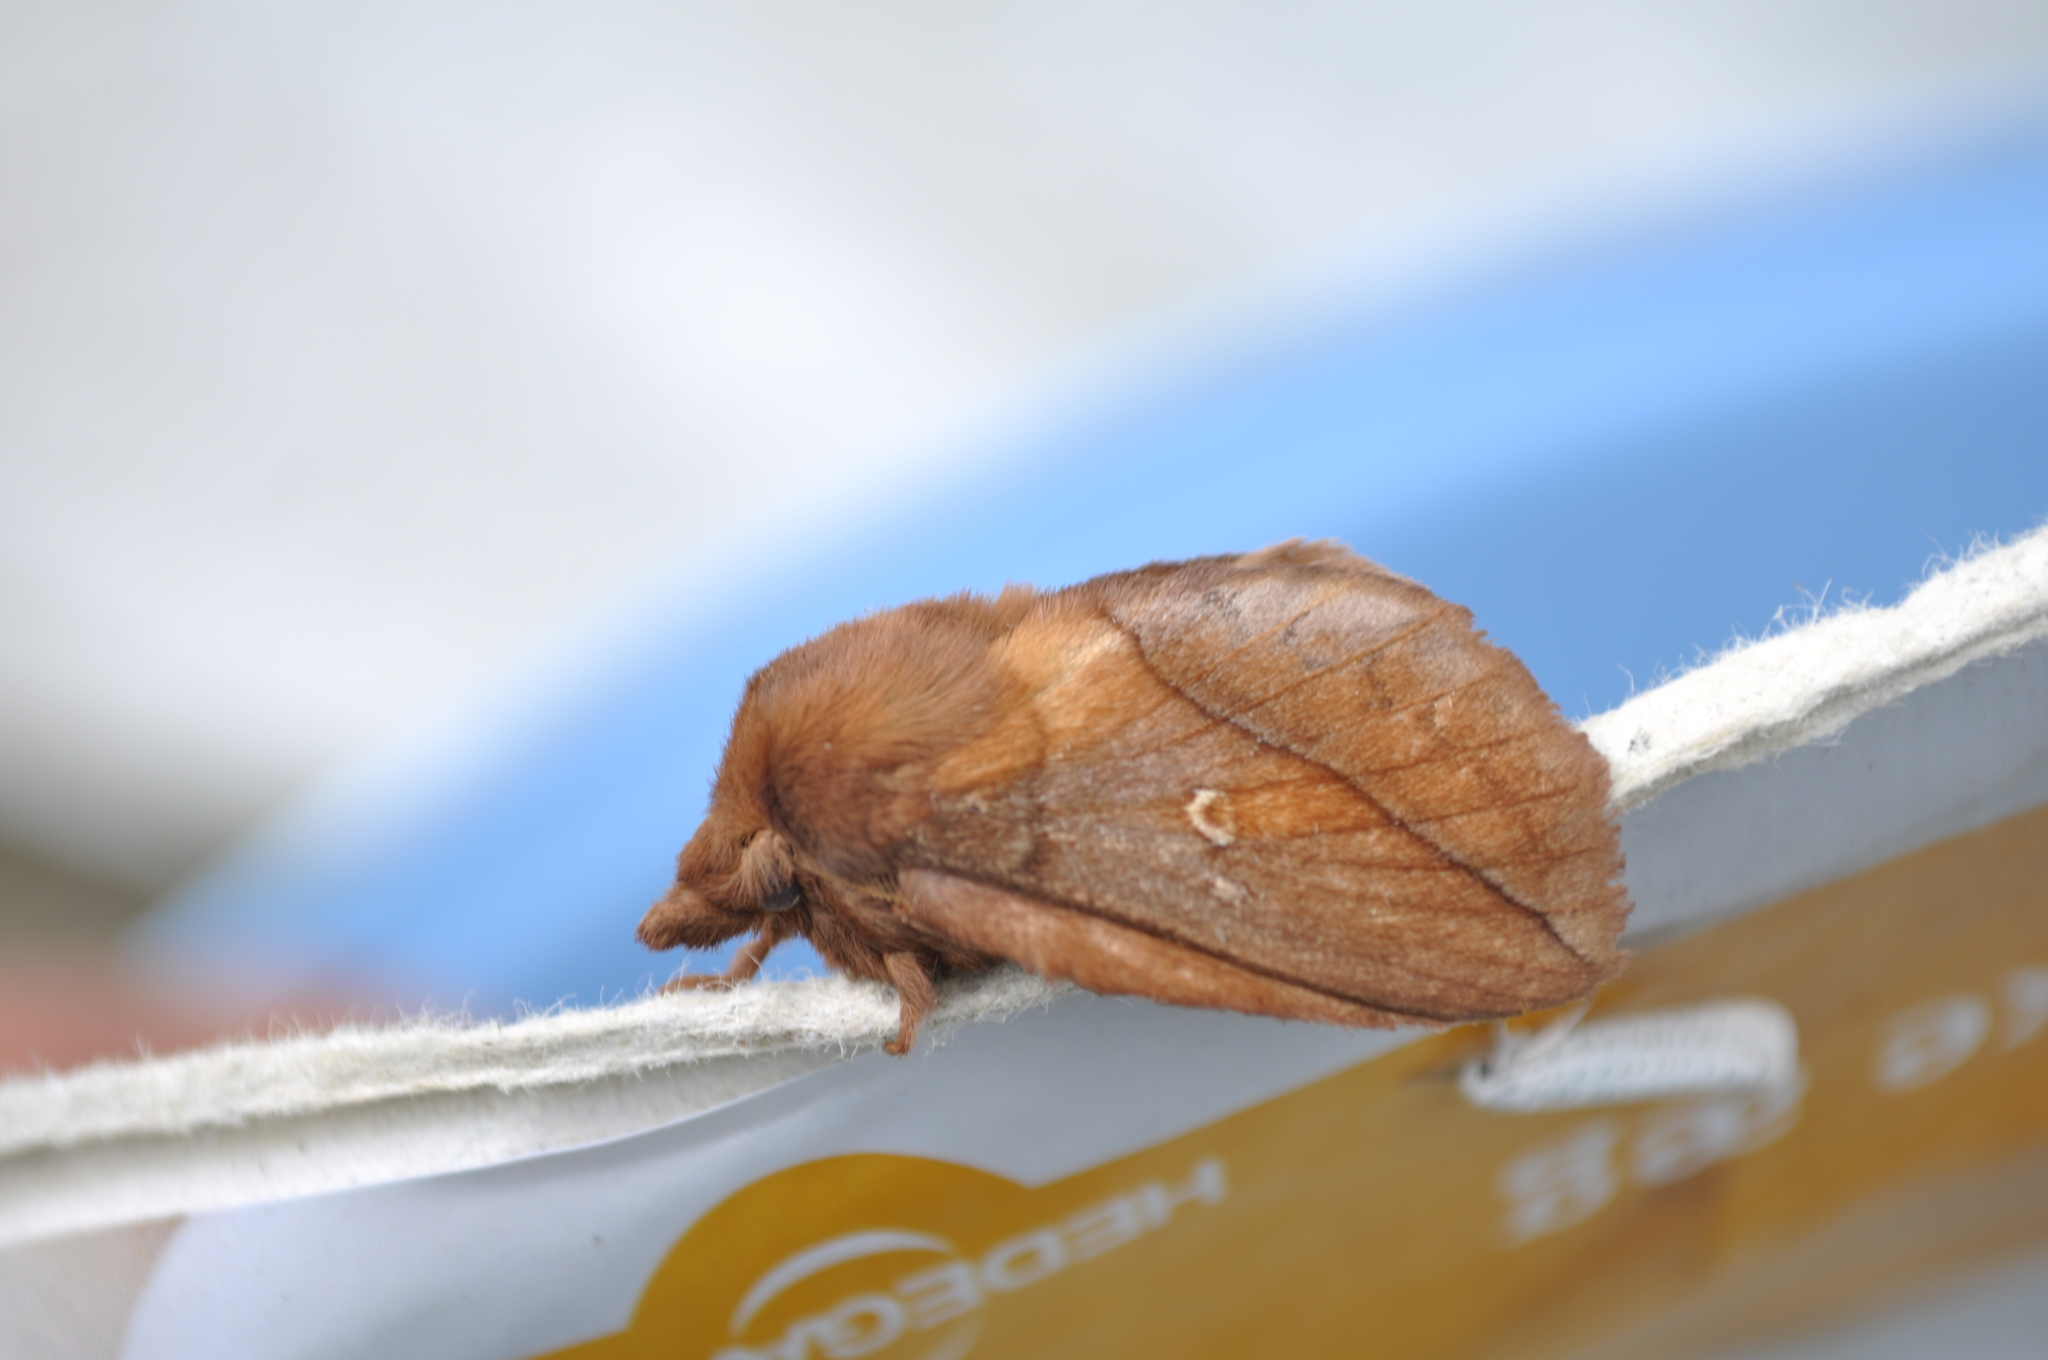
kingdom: Animalia
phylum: Arthropoda
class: Insecta
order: Lepidoptera
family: Lasiocampidae
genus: Euthrix
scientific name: Euthrix potatoria
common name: Drinker
